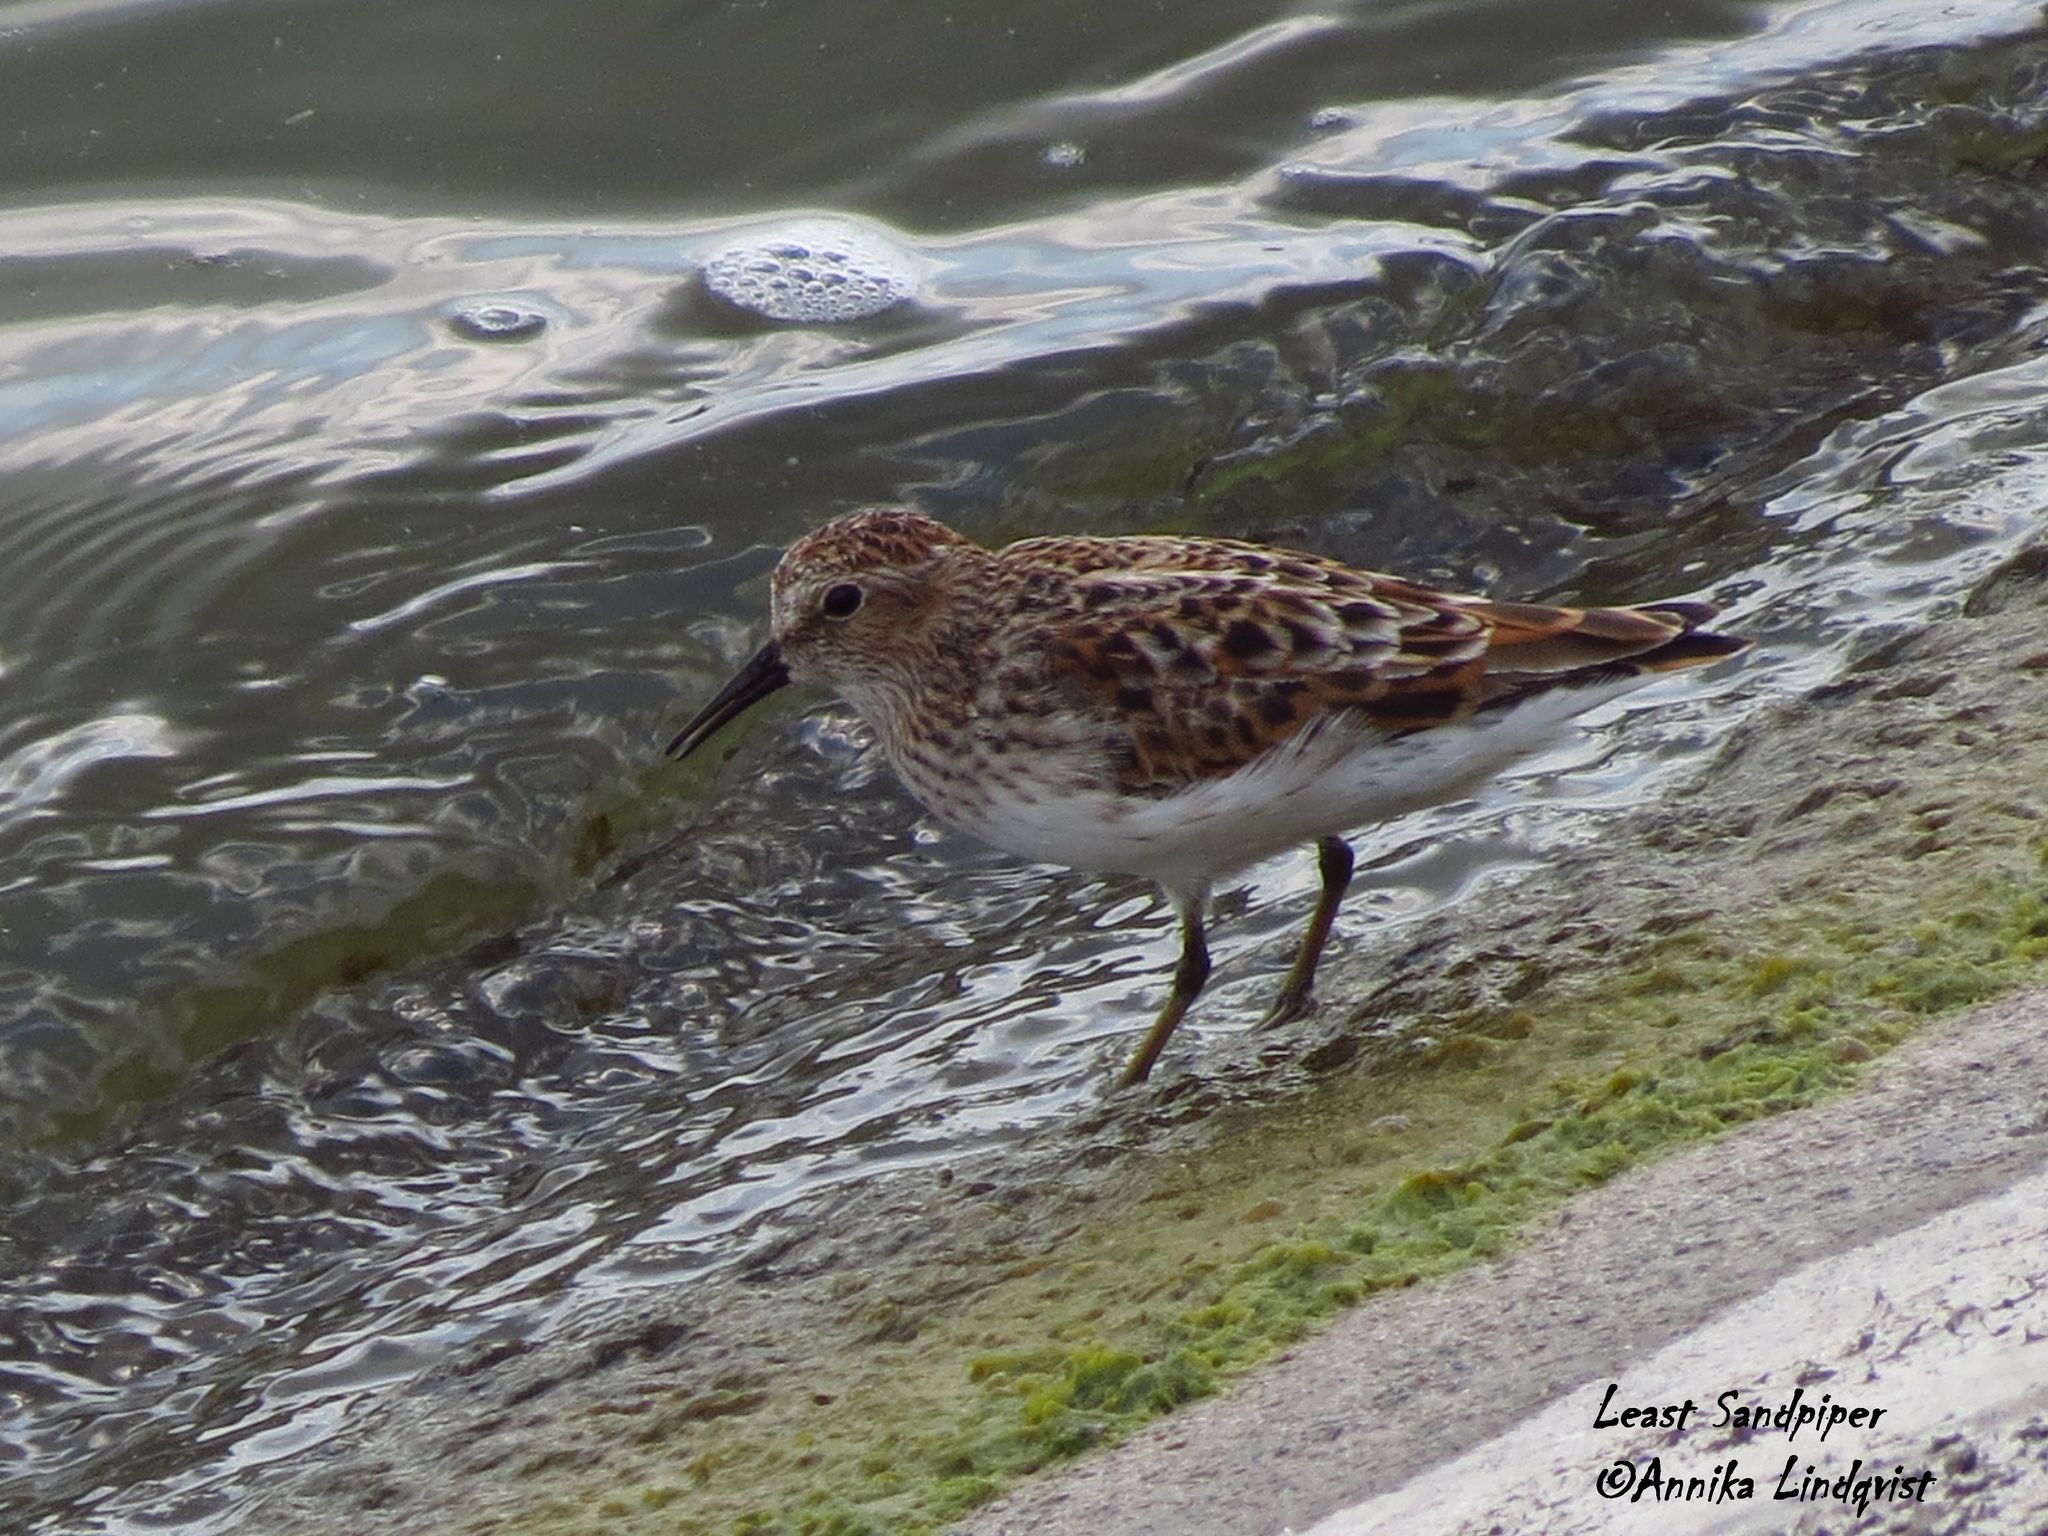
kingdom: Animalia
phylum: Chordata
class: Aves
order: Charadriiformes
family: Scolopacidae
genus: Calidris
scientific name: Calidris minutilla
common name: Least sandpiper
